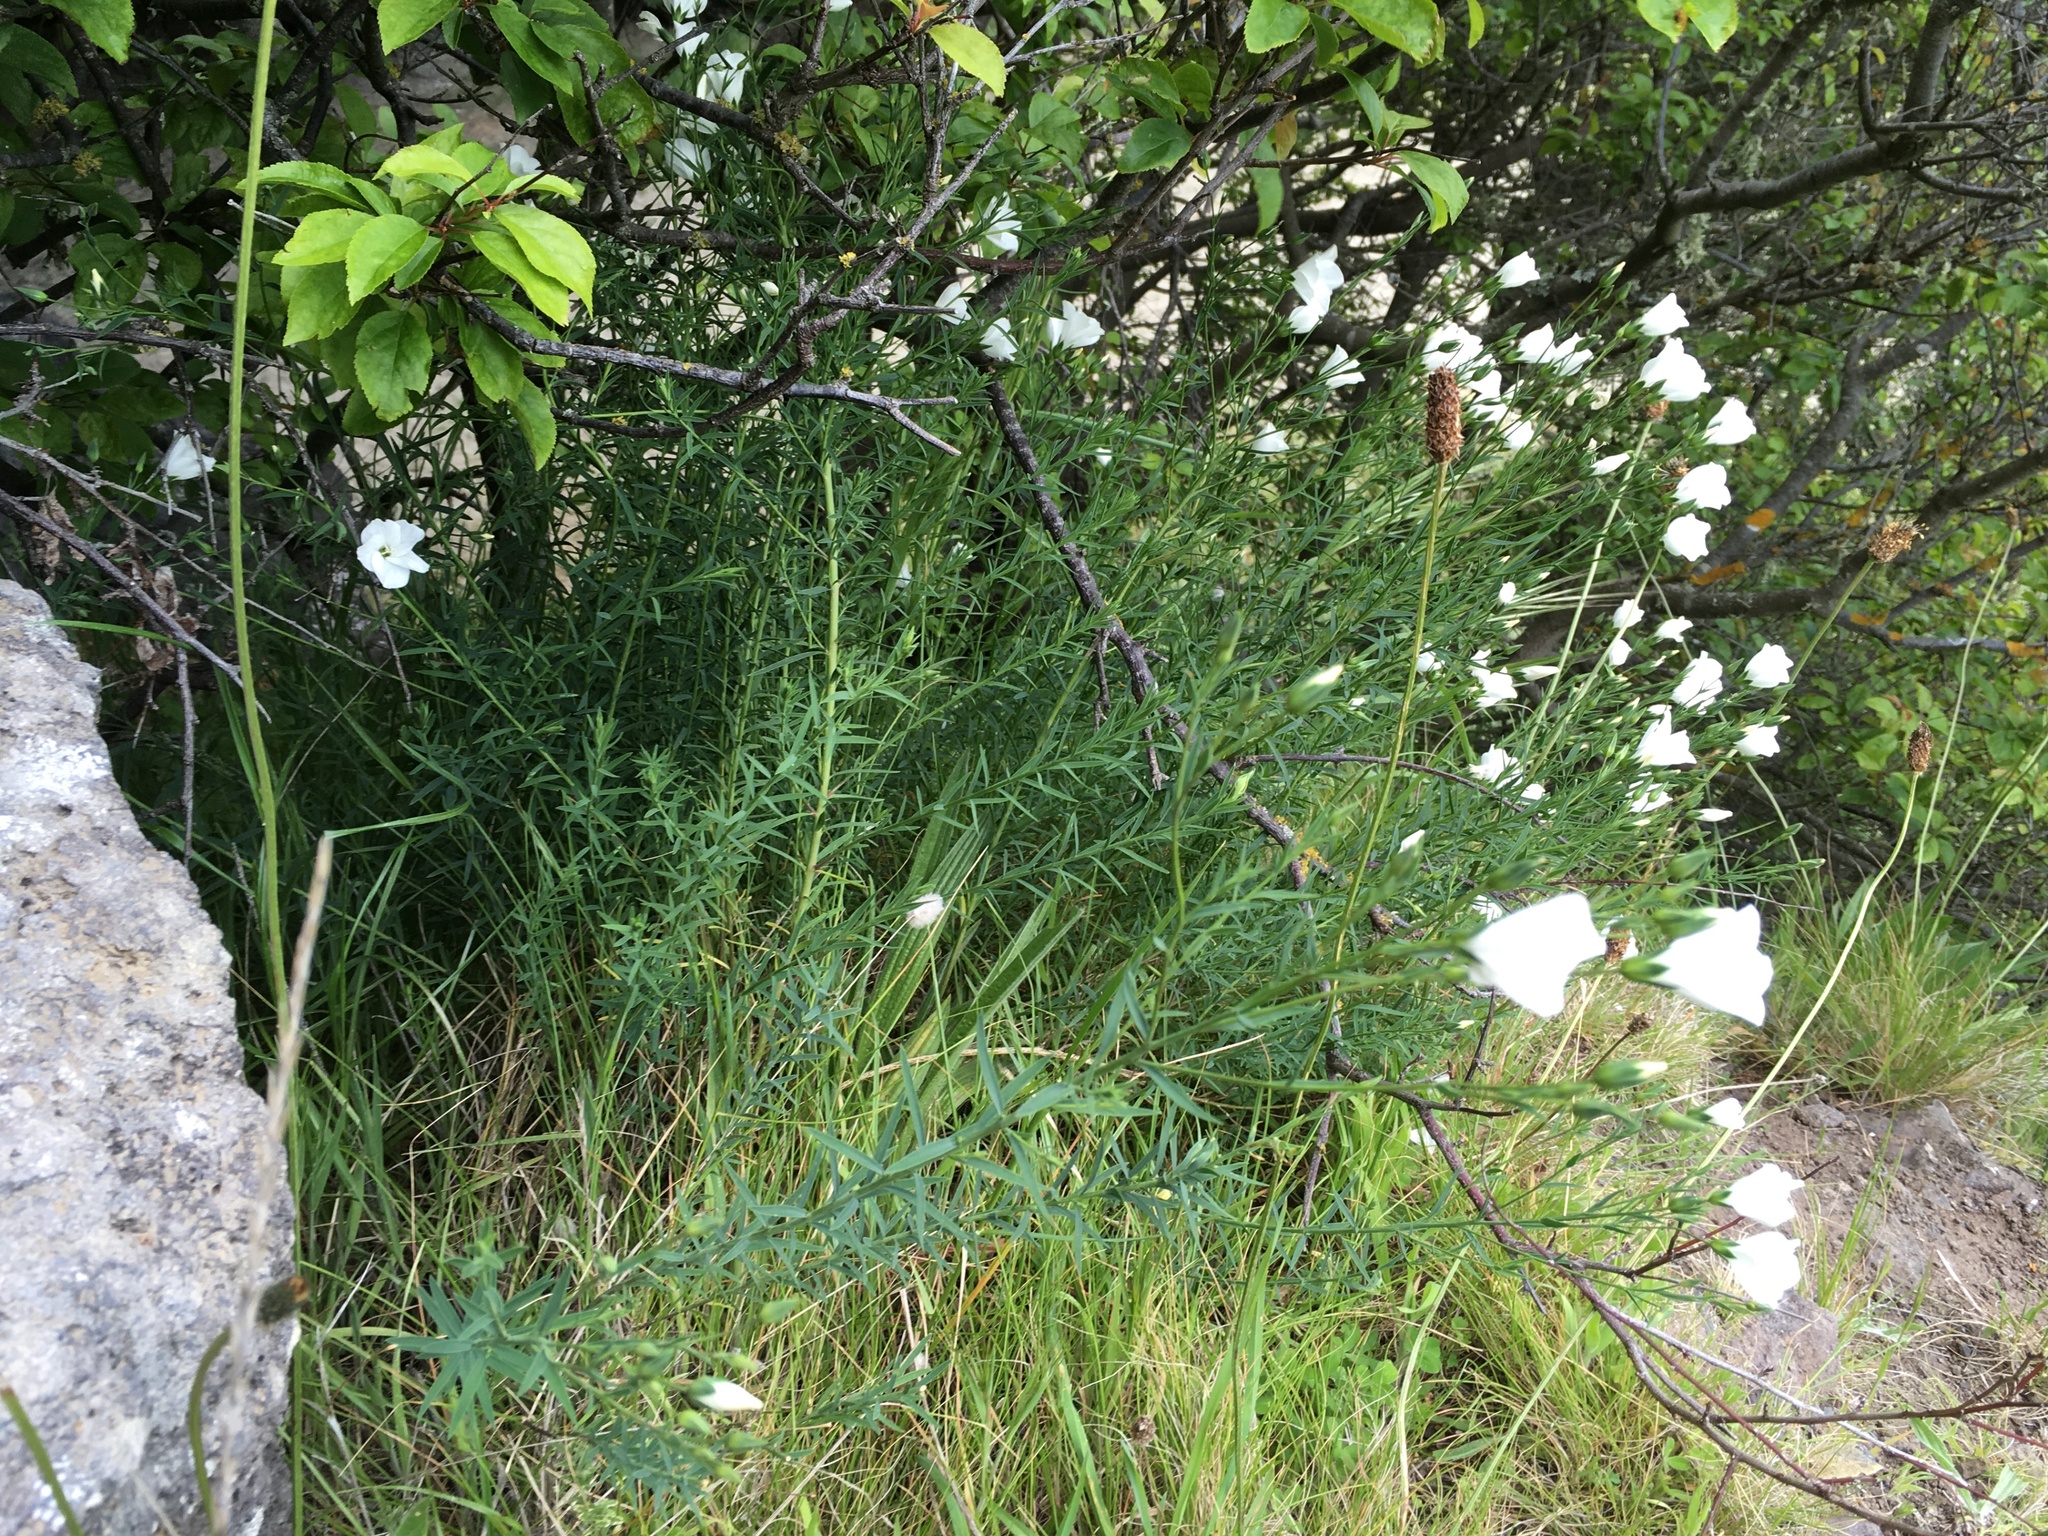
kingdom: Plantae
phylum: Tracheophyta
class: Magnoliopsida
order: Malpighiales
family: Linaceae
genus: Linum
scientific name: Linum monogynum
